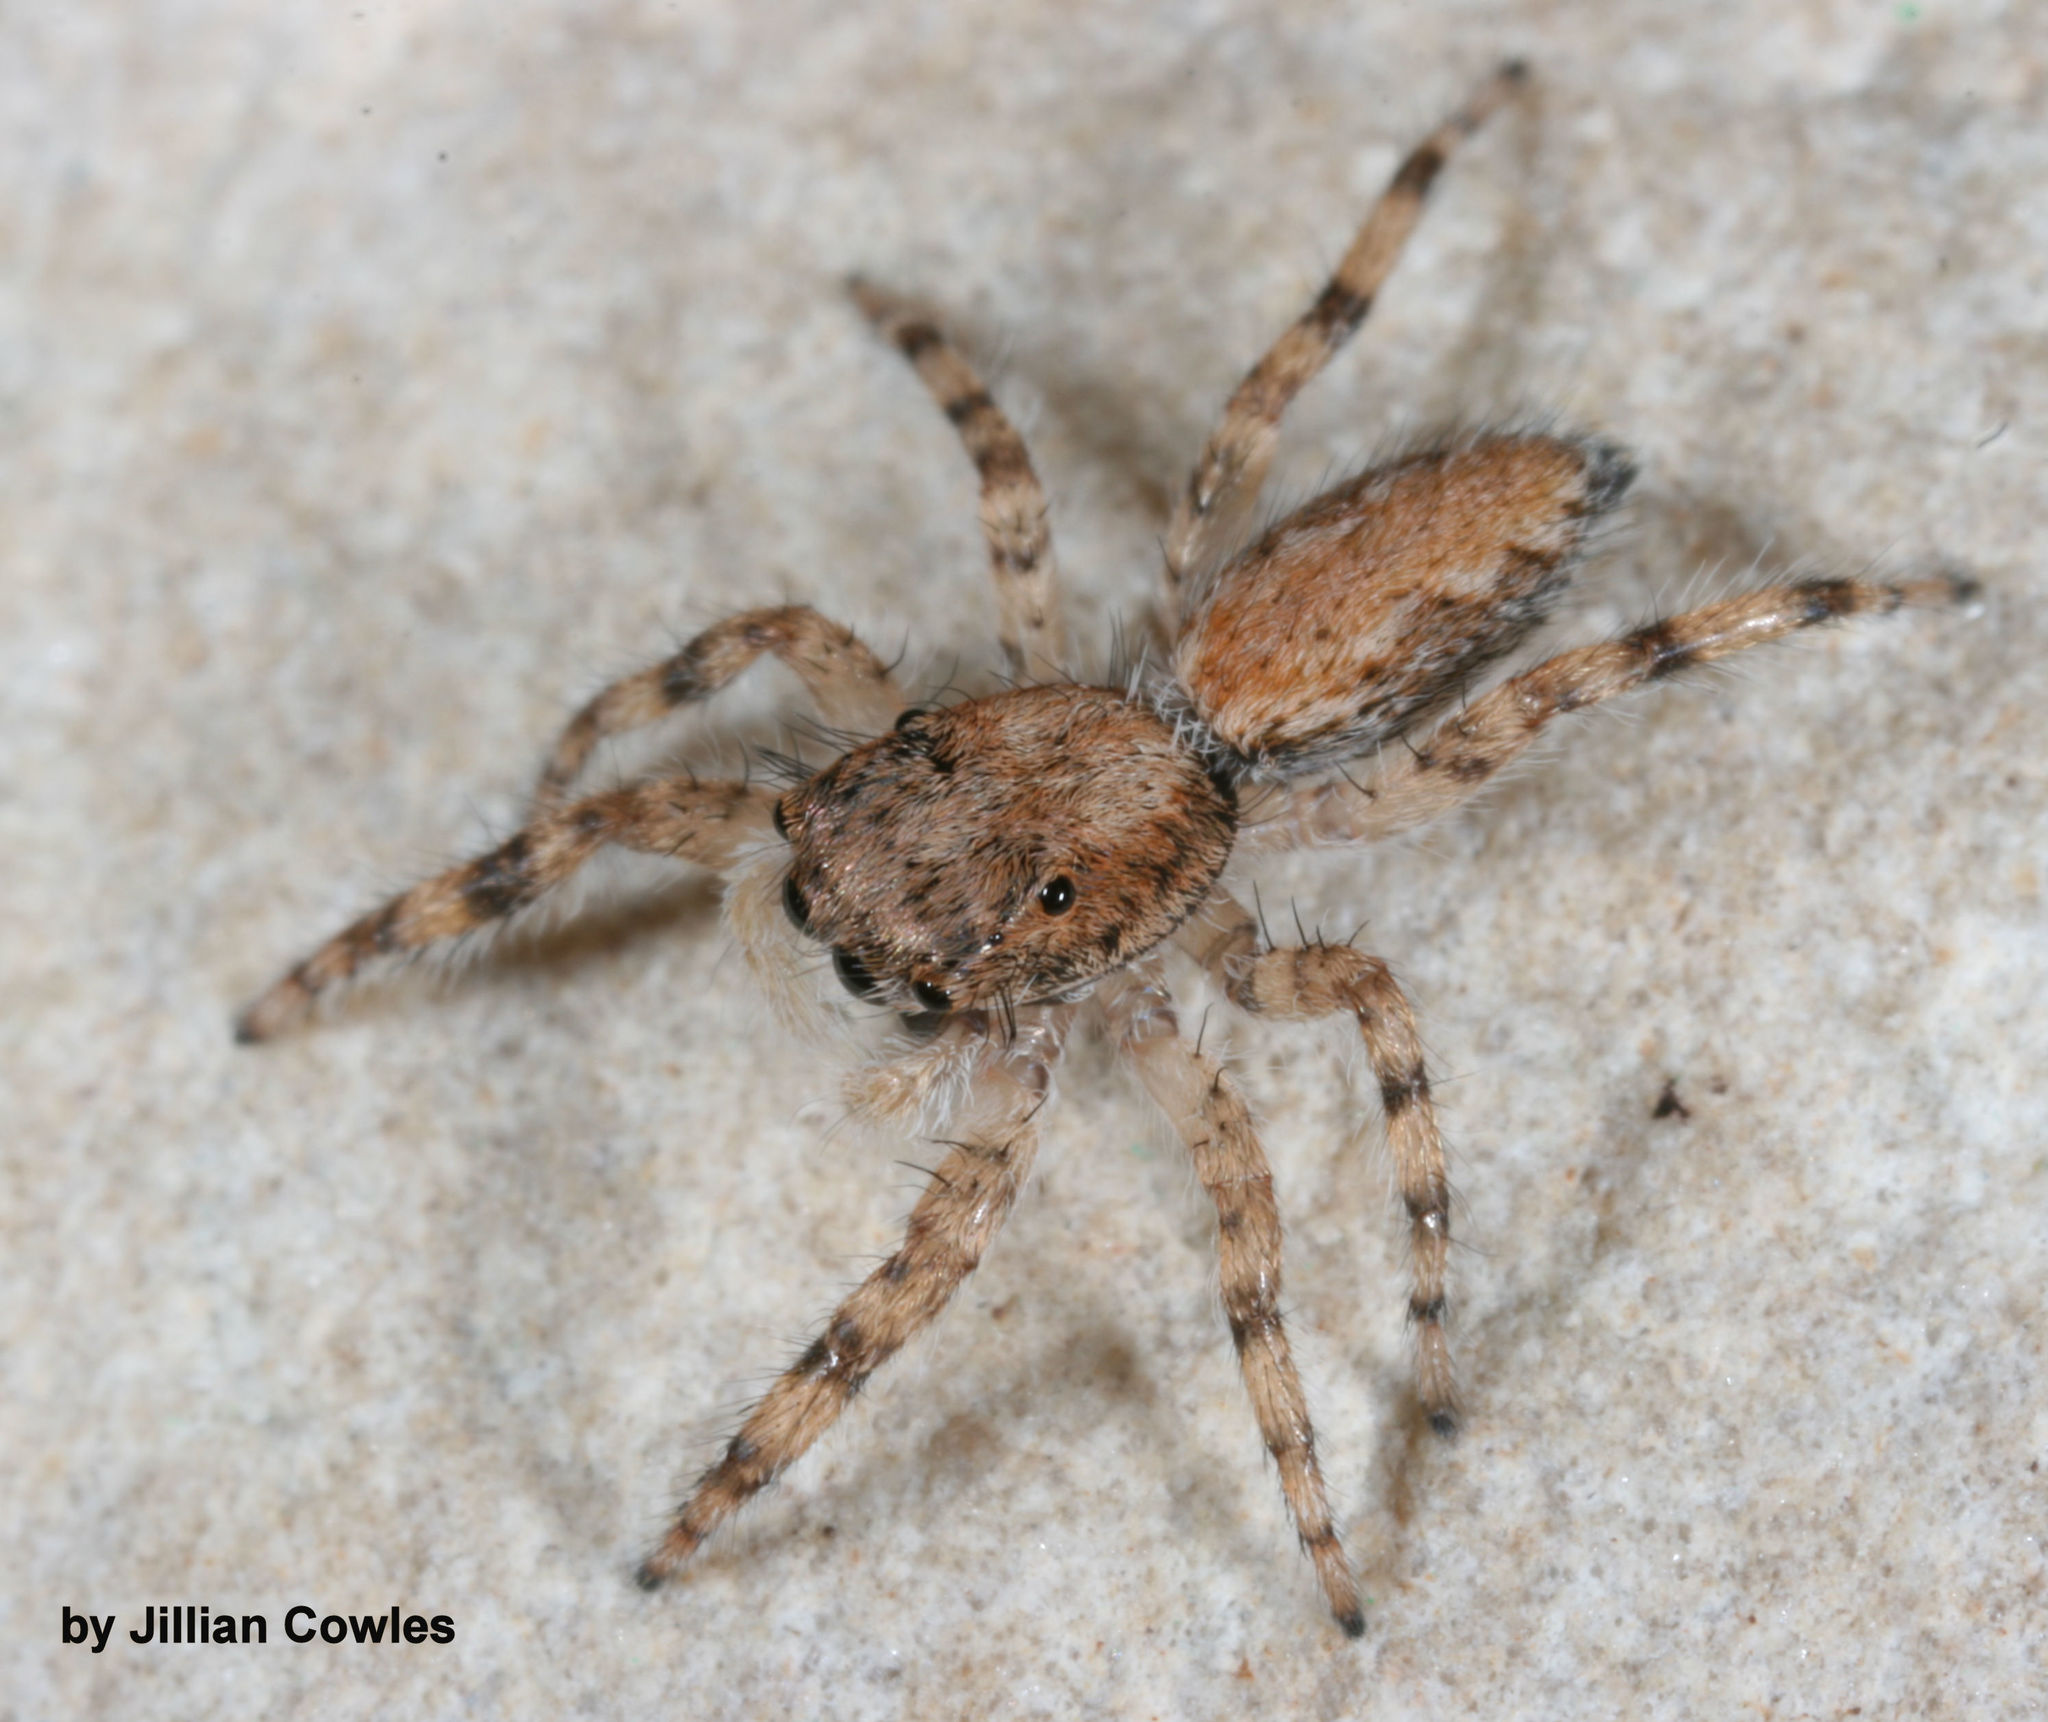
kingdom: Animalia
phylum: Arthropoda
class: Arachnida
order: Araneae
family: Salticidae
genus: Platycryptus
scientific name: Platycryptus arizonensis
